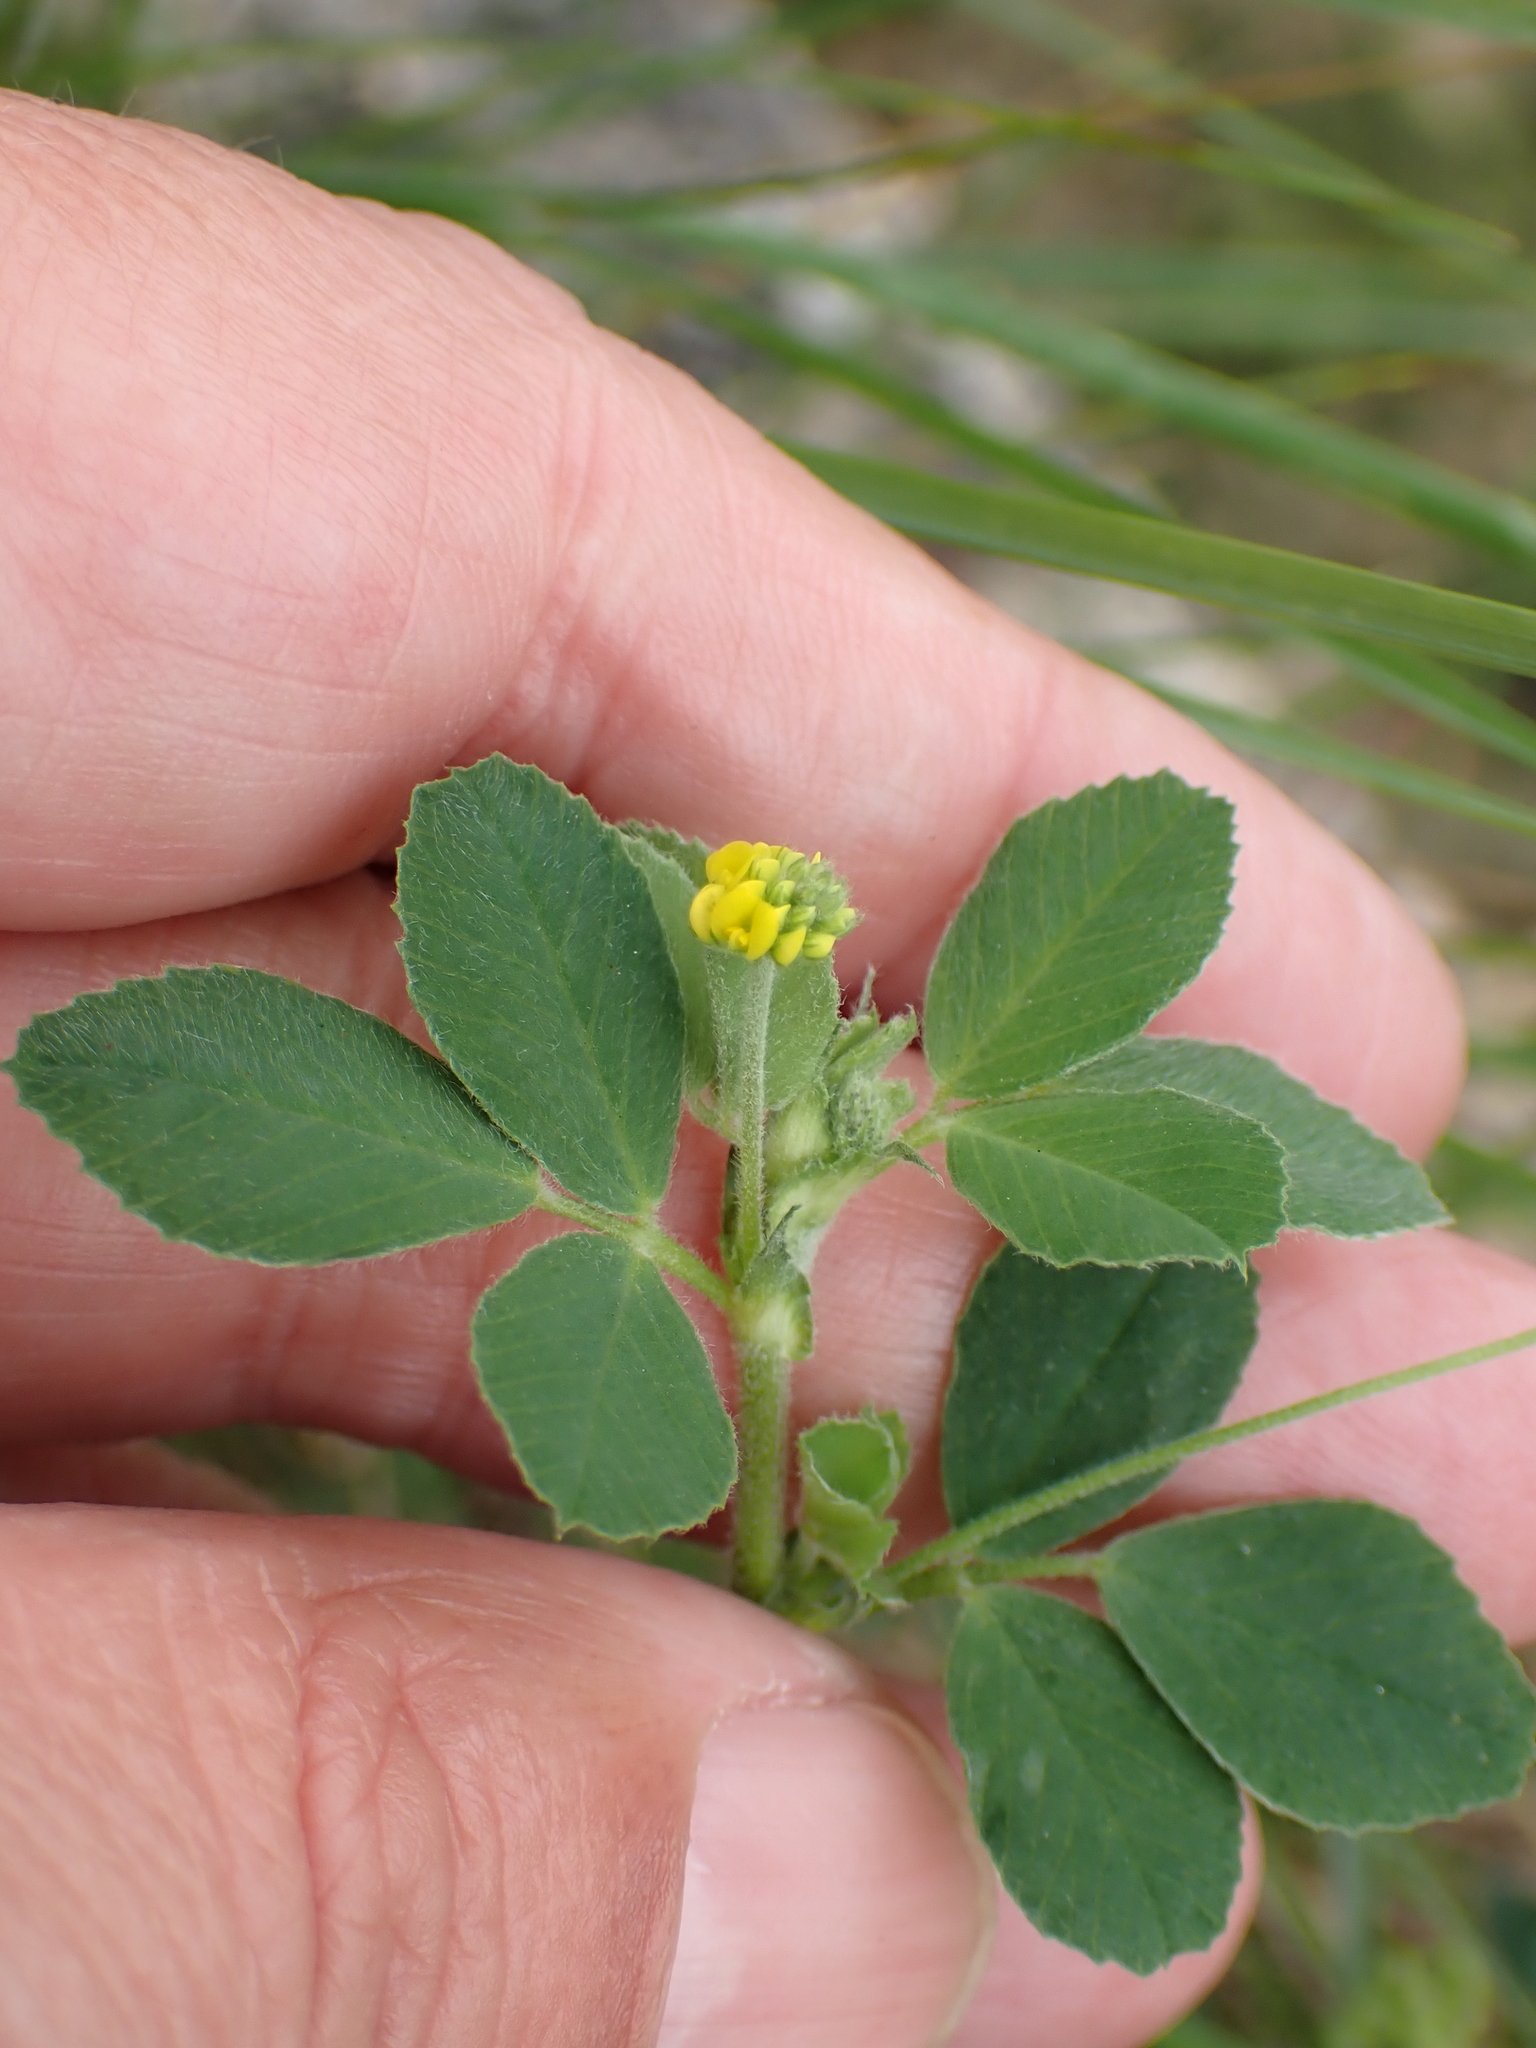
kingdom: Plantae
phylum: Tracheophyta
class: Magnoliopsida
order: Fabales
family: Fabaceae
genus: Medicago
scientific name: Medicago lupulina
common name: Black medick
